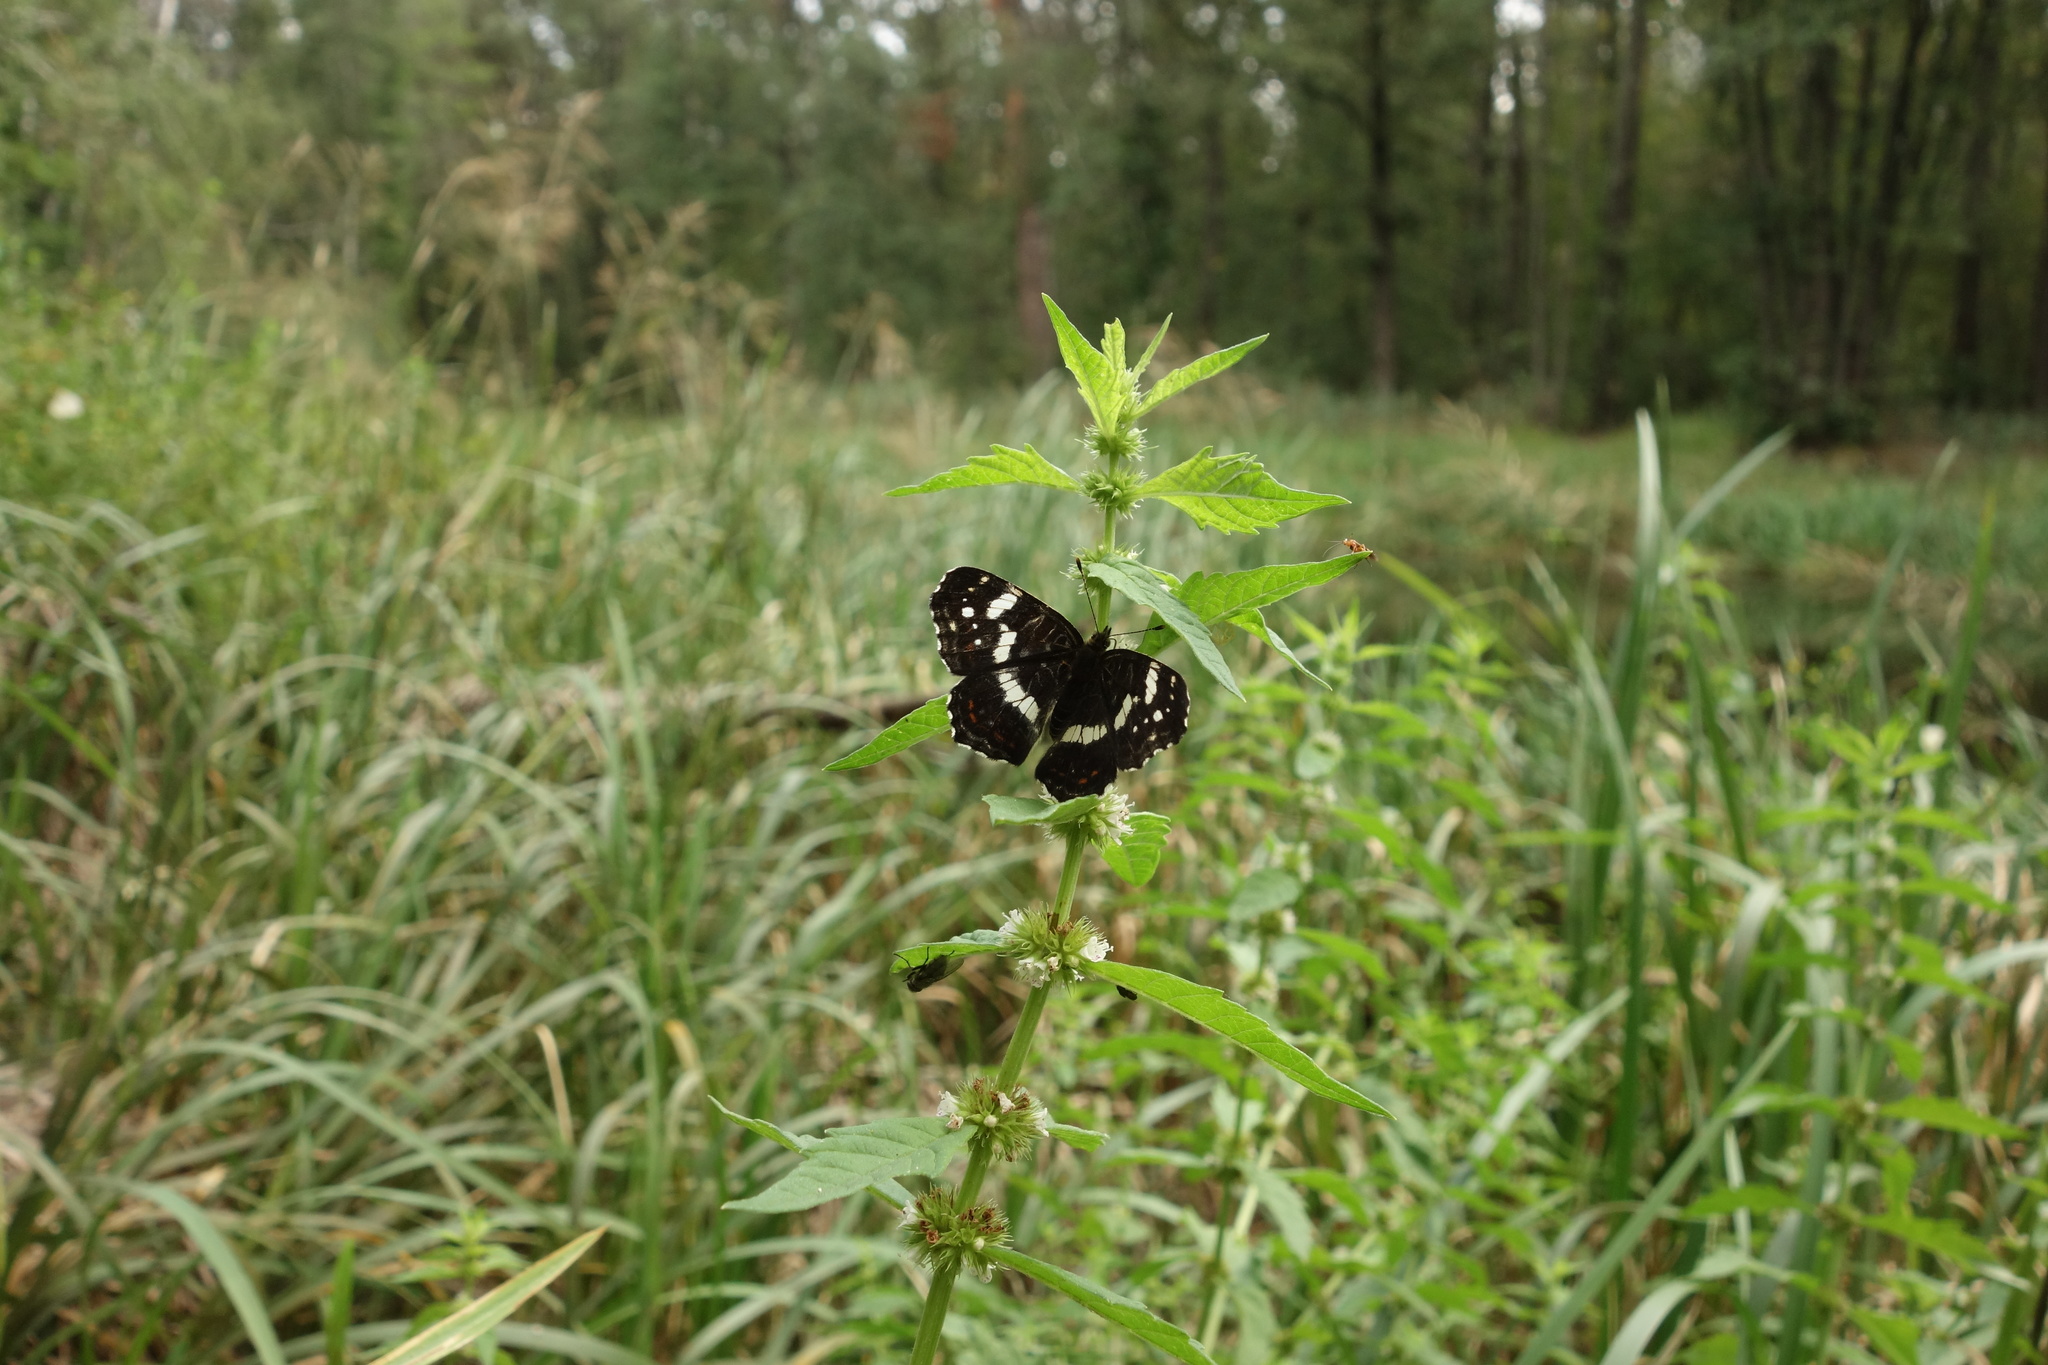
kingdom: Animalia
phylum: Arthropoda
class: Insecta
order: Lepidoptera
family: Nymphalidae
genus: Araschnia
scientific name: Araschnia levana
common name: Map butterfly
